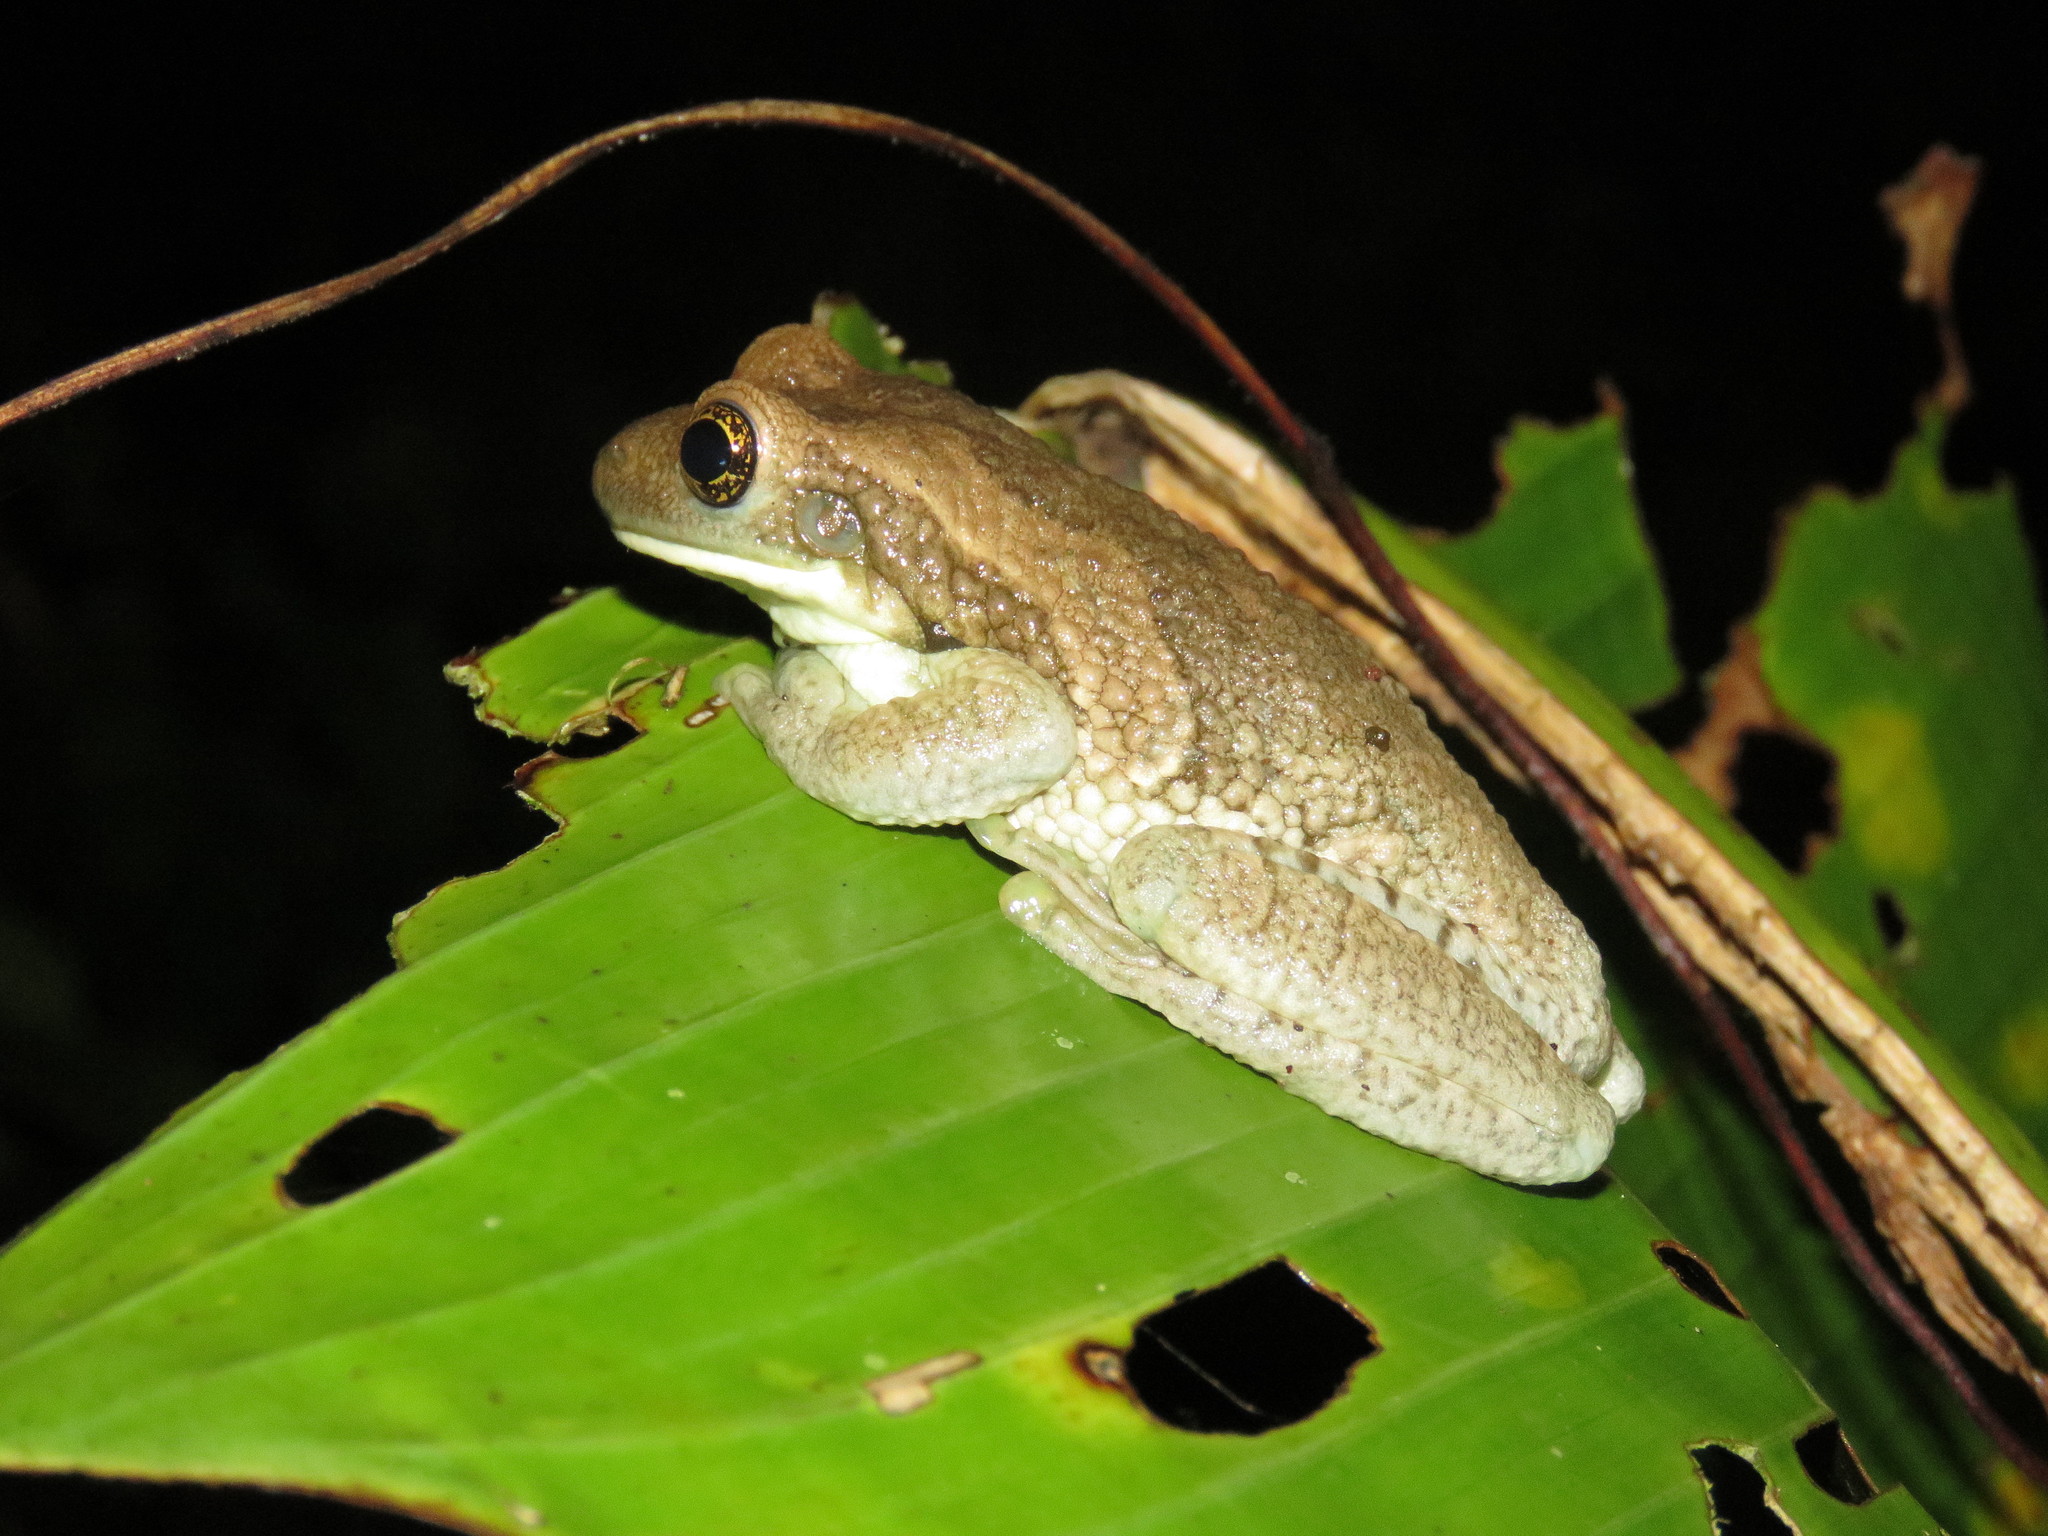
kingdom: Animalia
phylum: Chordata
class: Amphibia
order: Anura
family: Hylidae
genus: Trachycephalus
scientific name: Trachycephalus typhonius
